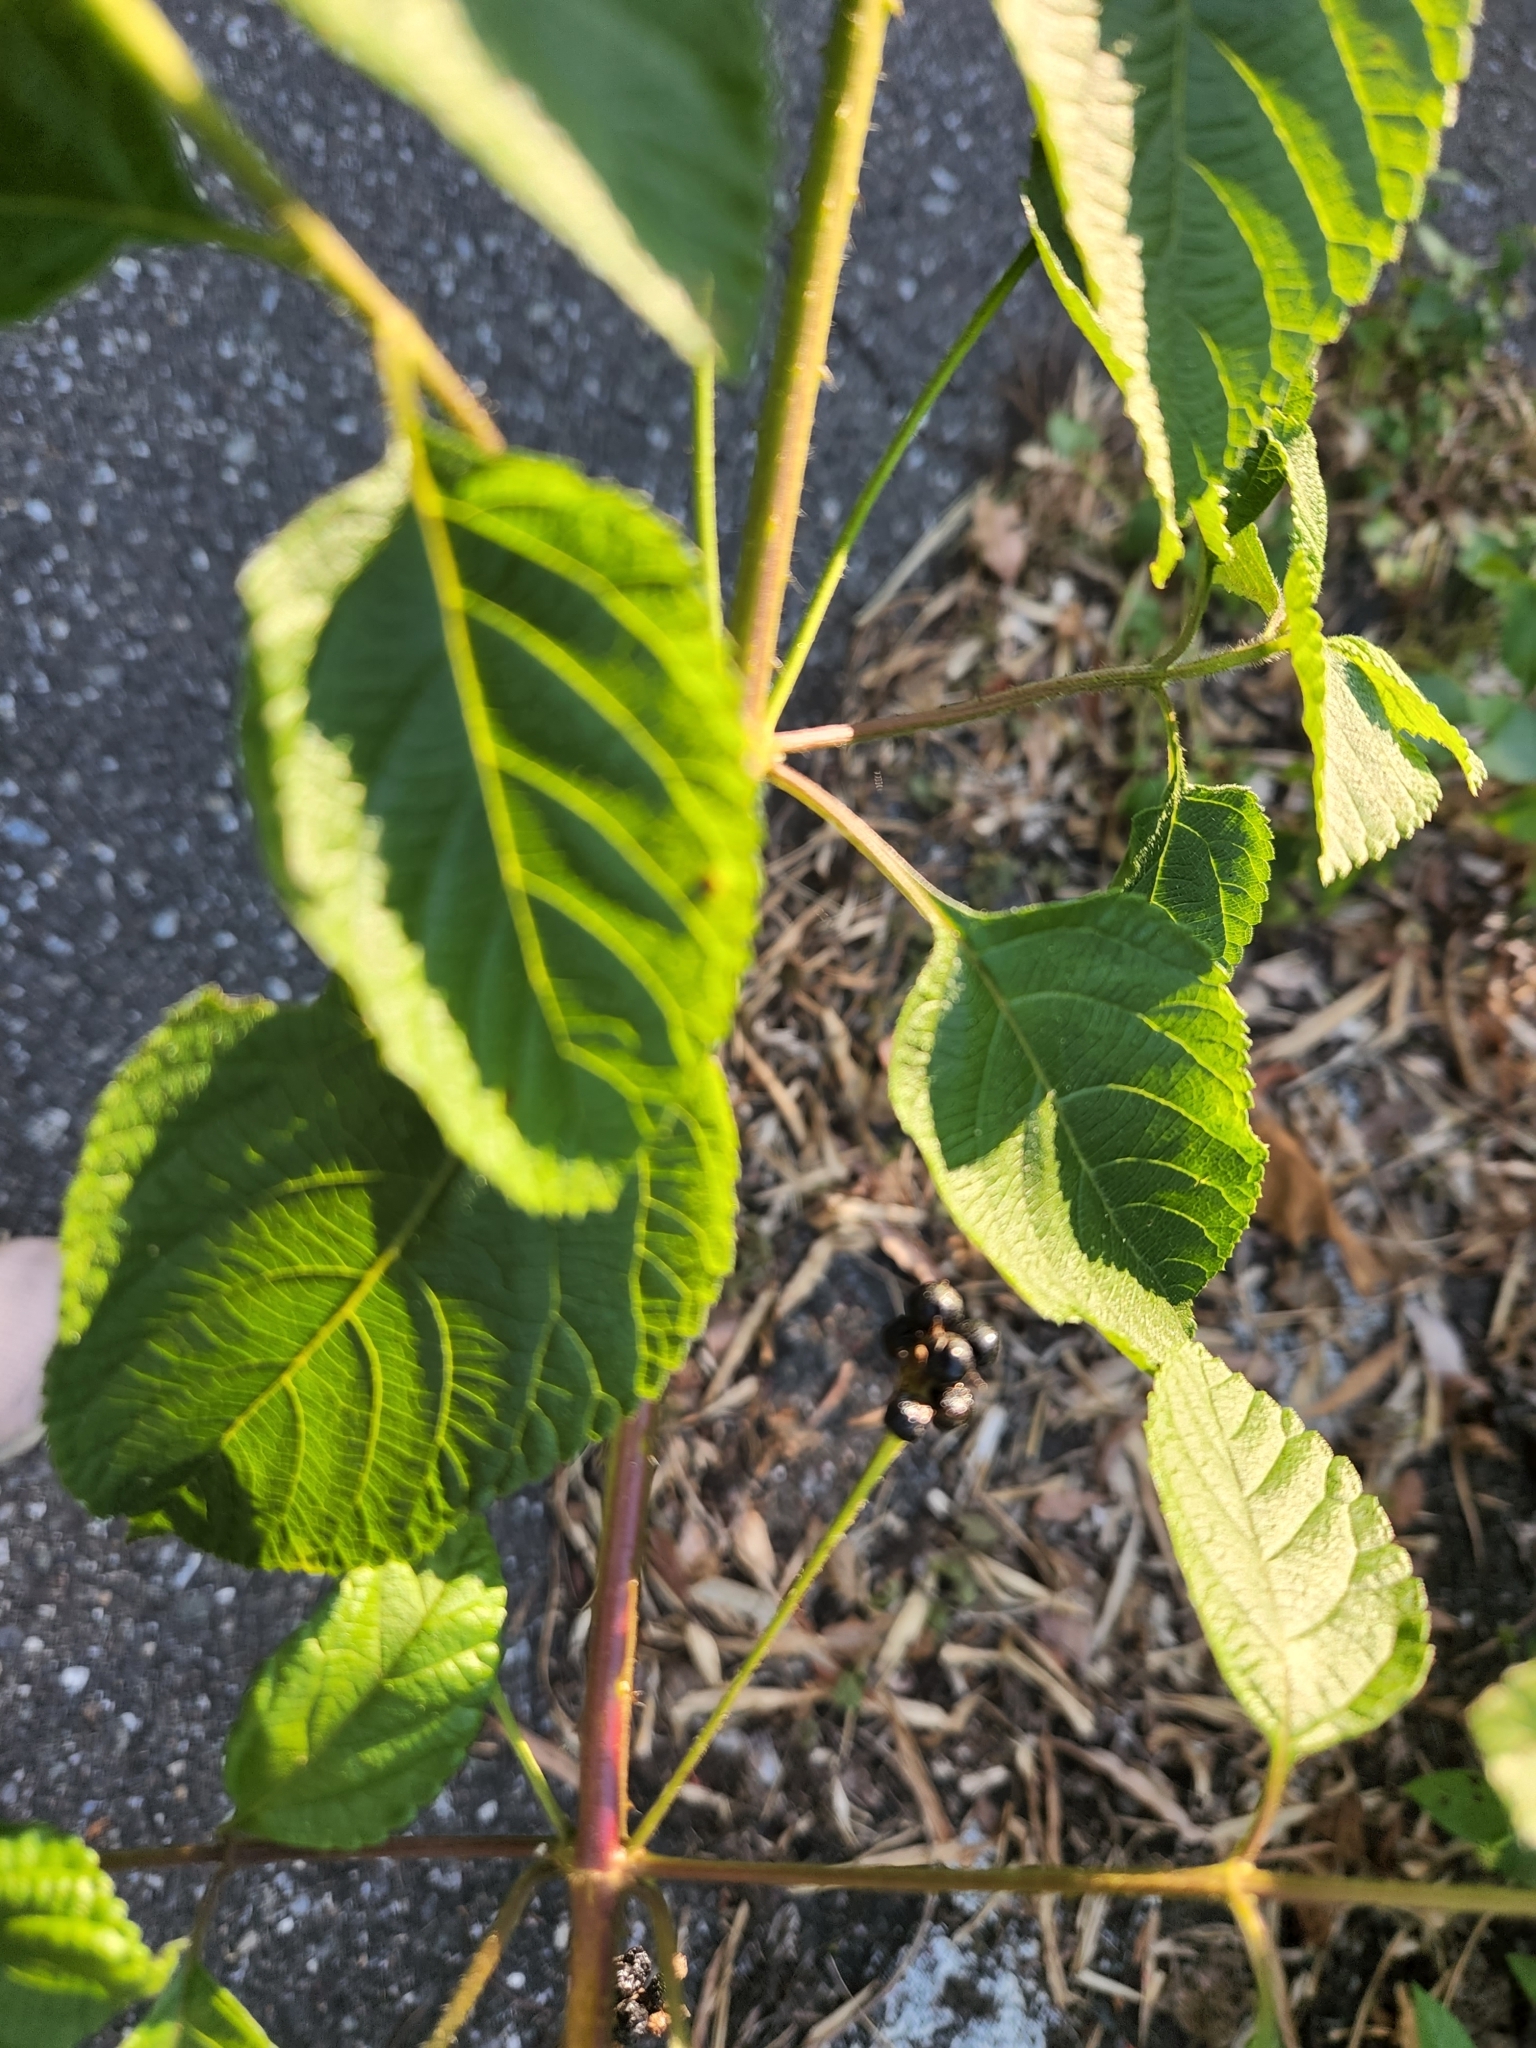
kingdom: Plantae
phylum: Tracheophyta
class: Magnoliopsida
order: Lamiales
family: Verbenaceae
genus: Lantana
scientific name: Lantana camara
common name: Lantana
